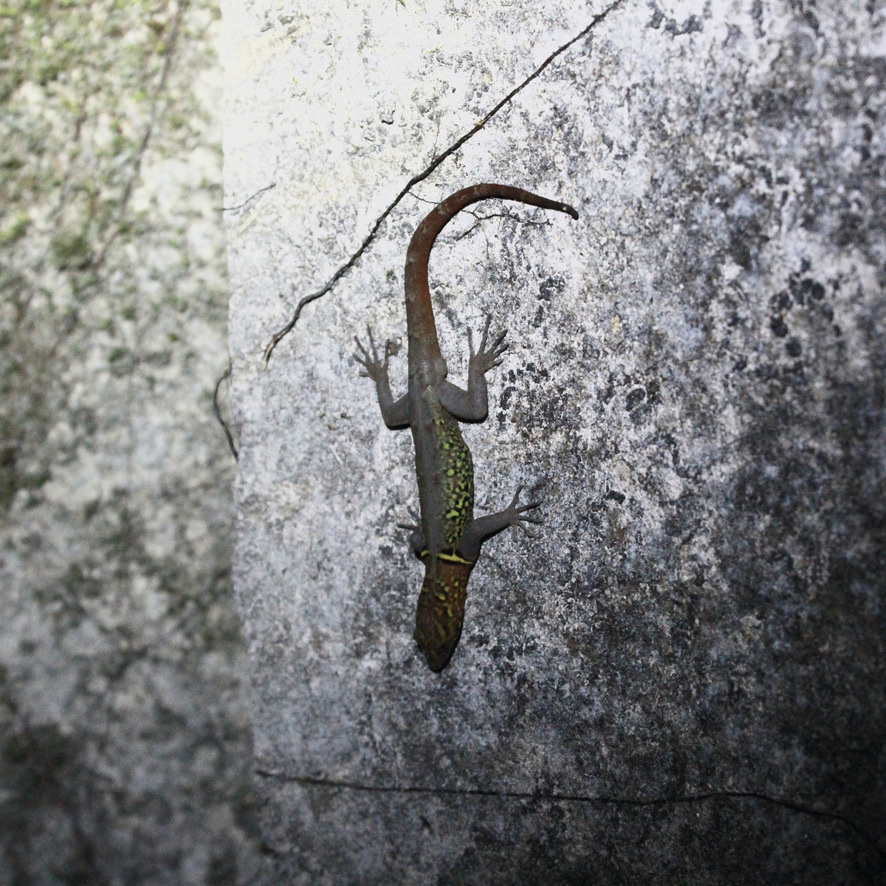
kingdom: Animalia
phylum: Chordata
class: Squamata
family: Sphaerodactylidae
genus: Gonatodes
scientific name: Gonatodes ceciliae
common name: Brilliant south american gecko
